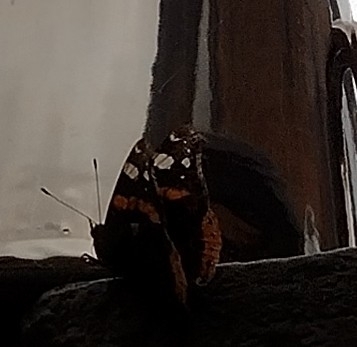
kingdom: Animalia
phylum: Arthropoda
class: Insecta
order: Lepidoptera
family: Nymphalidae
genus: Vanessa
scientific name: Vanessa atalanta
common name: Red admiral
